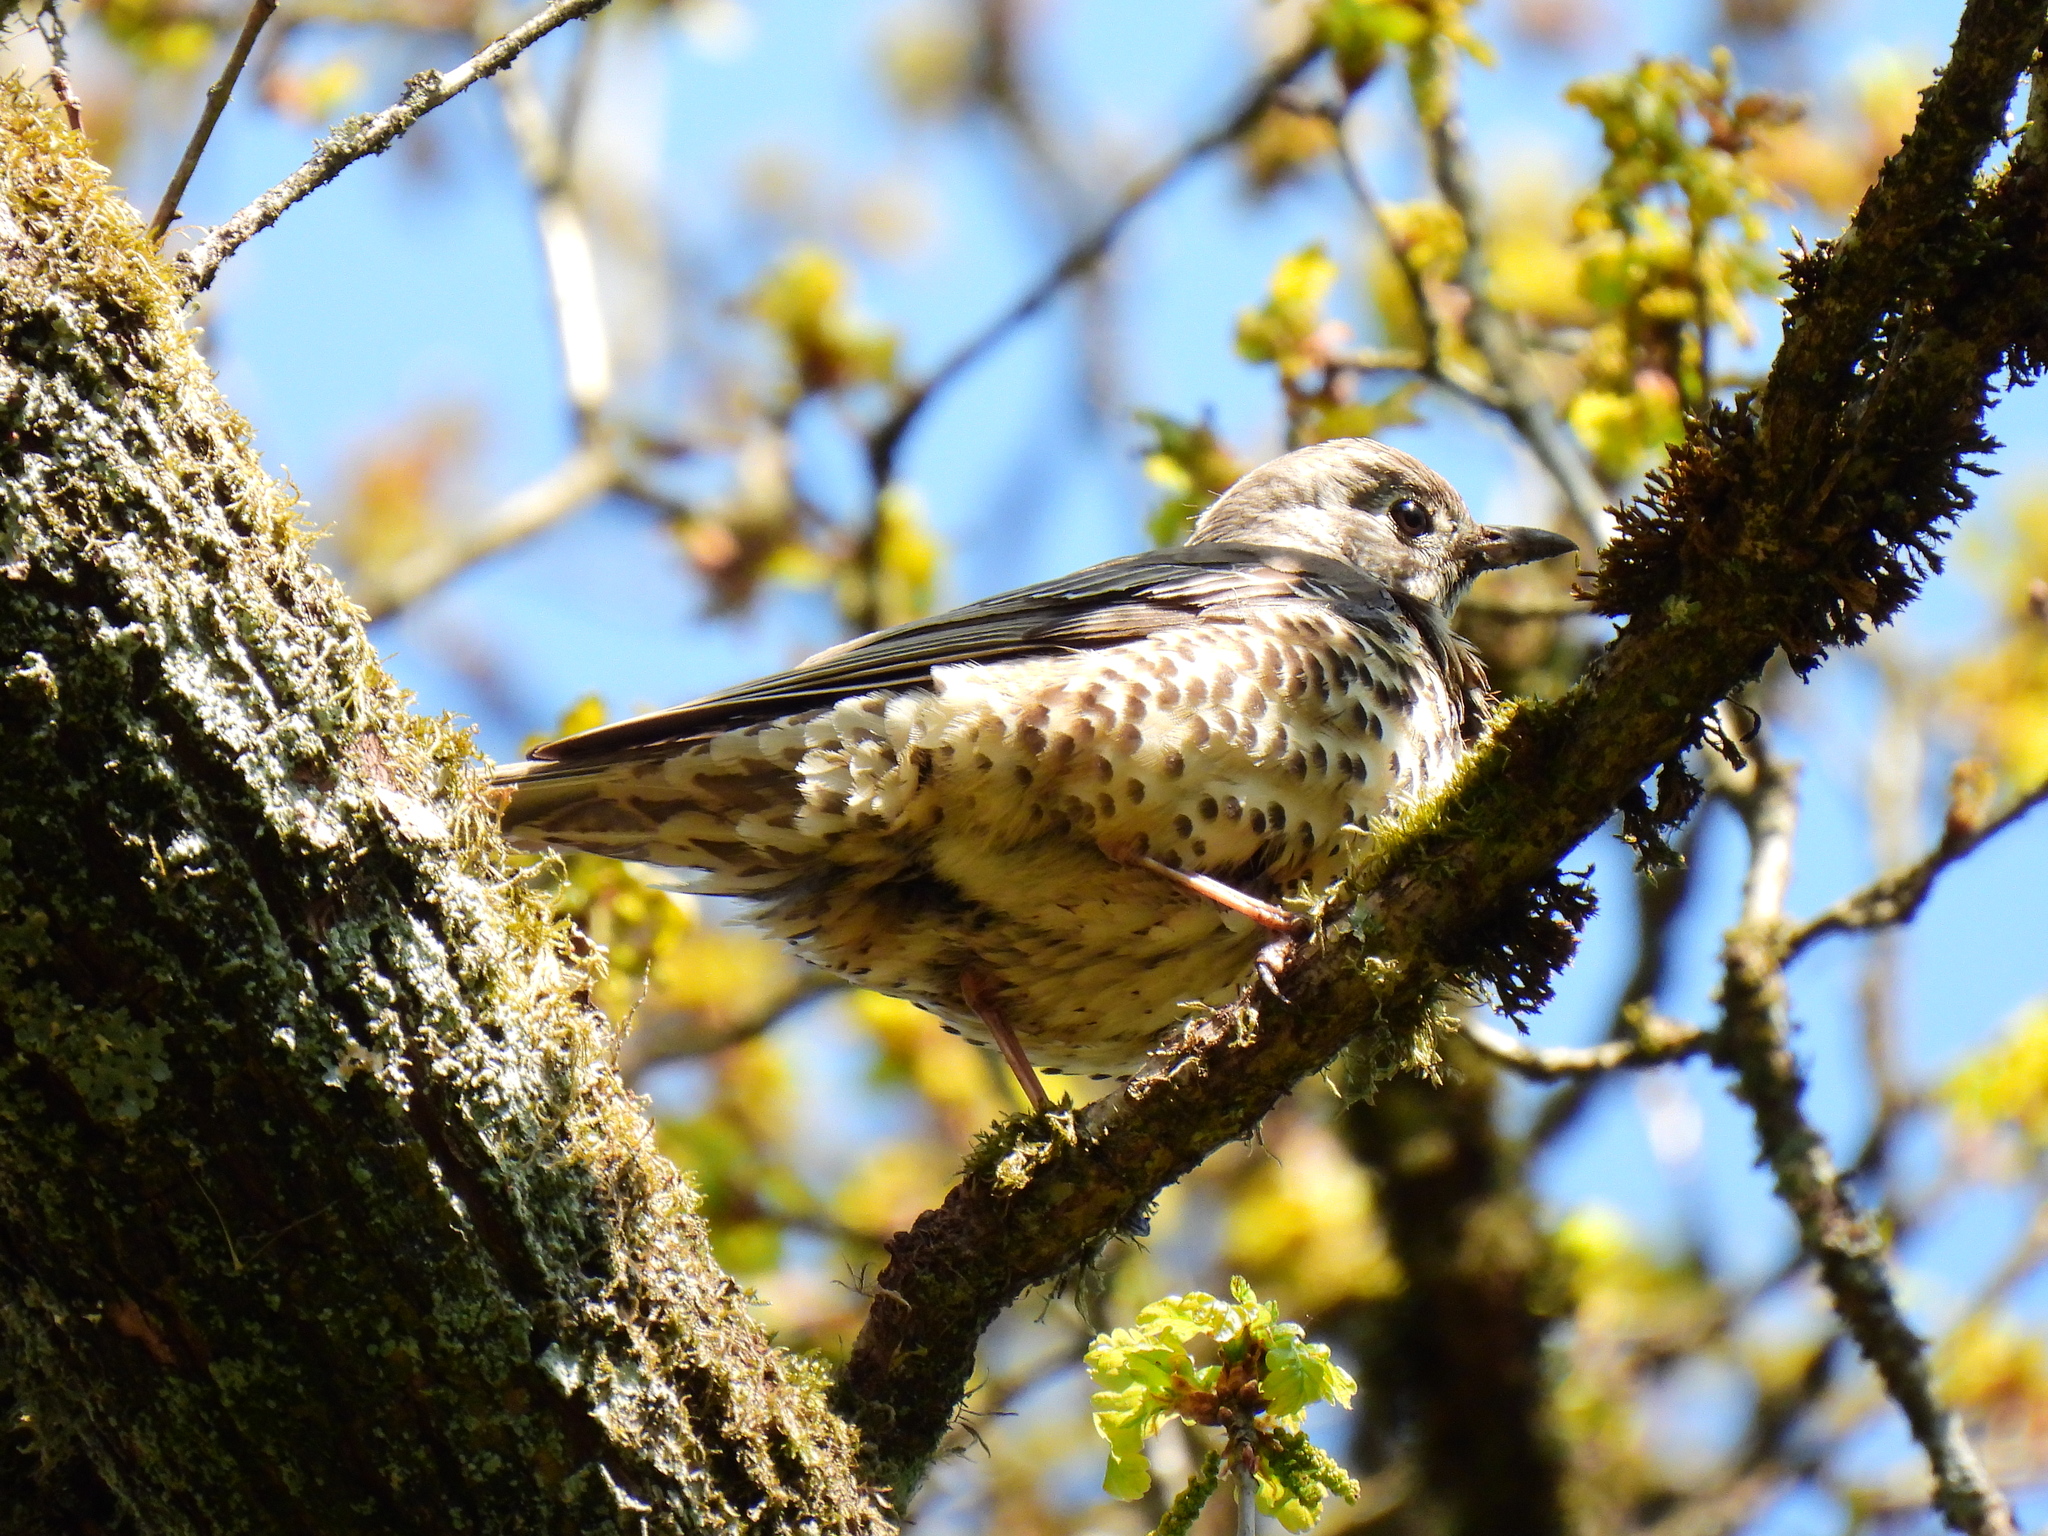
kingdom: Animalia
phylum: Chordata
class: Aves
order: Passeriformes
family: Turdidae
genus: Turdus
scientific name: Turdus viscivorus
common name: Mistle thrush
